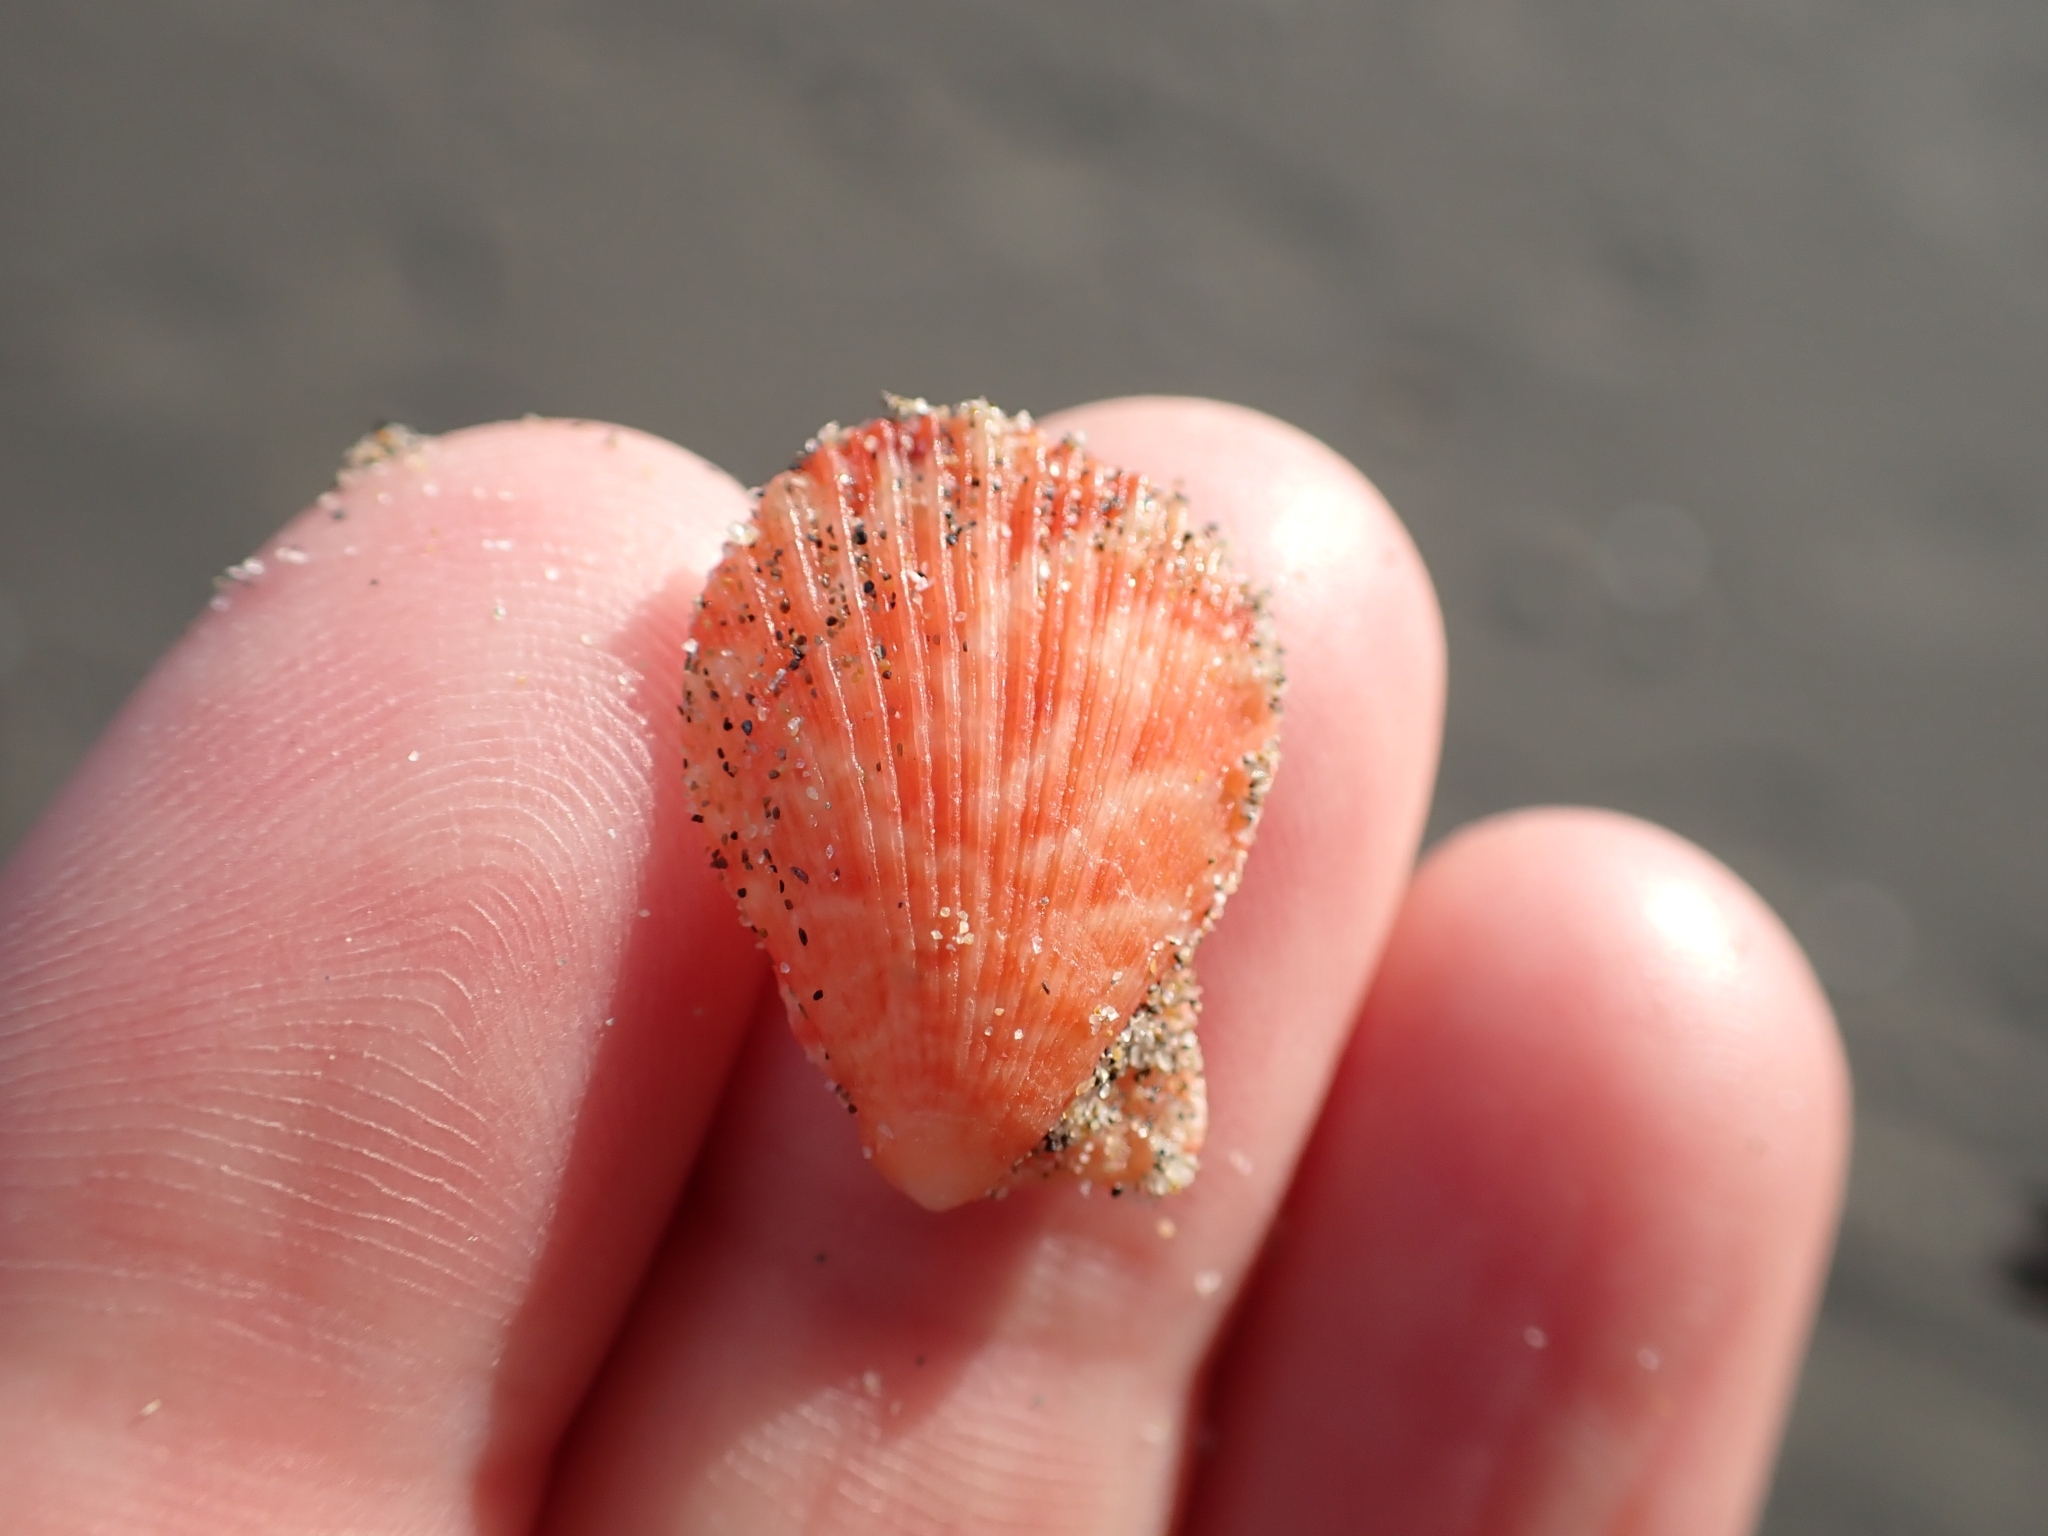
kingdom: Animalia
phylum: Mollusca
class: Bivalvia
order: Pectinida
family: Pectinidae
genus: Talochlamys
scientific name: Talochlamys multistriata
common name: Tinted scallop
